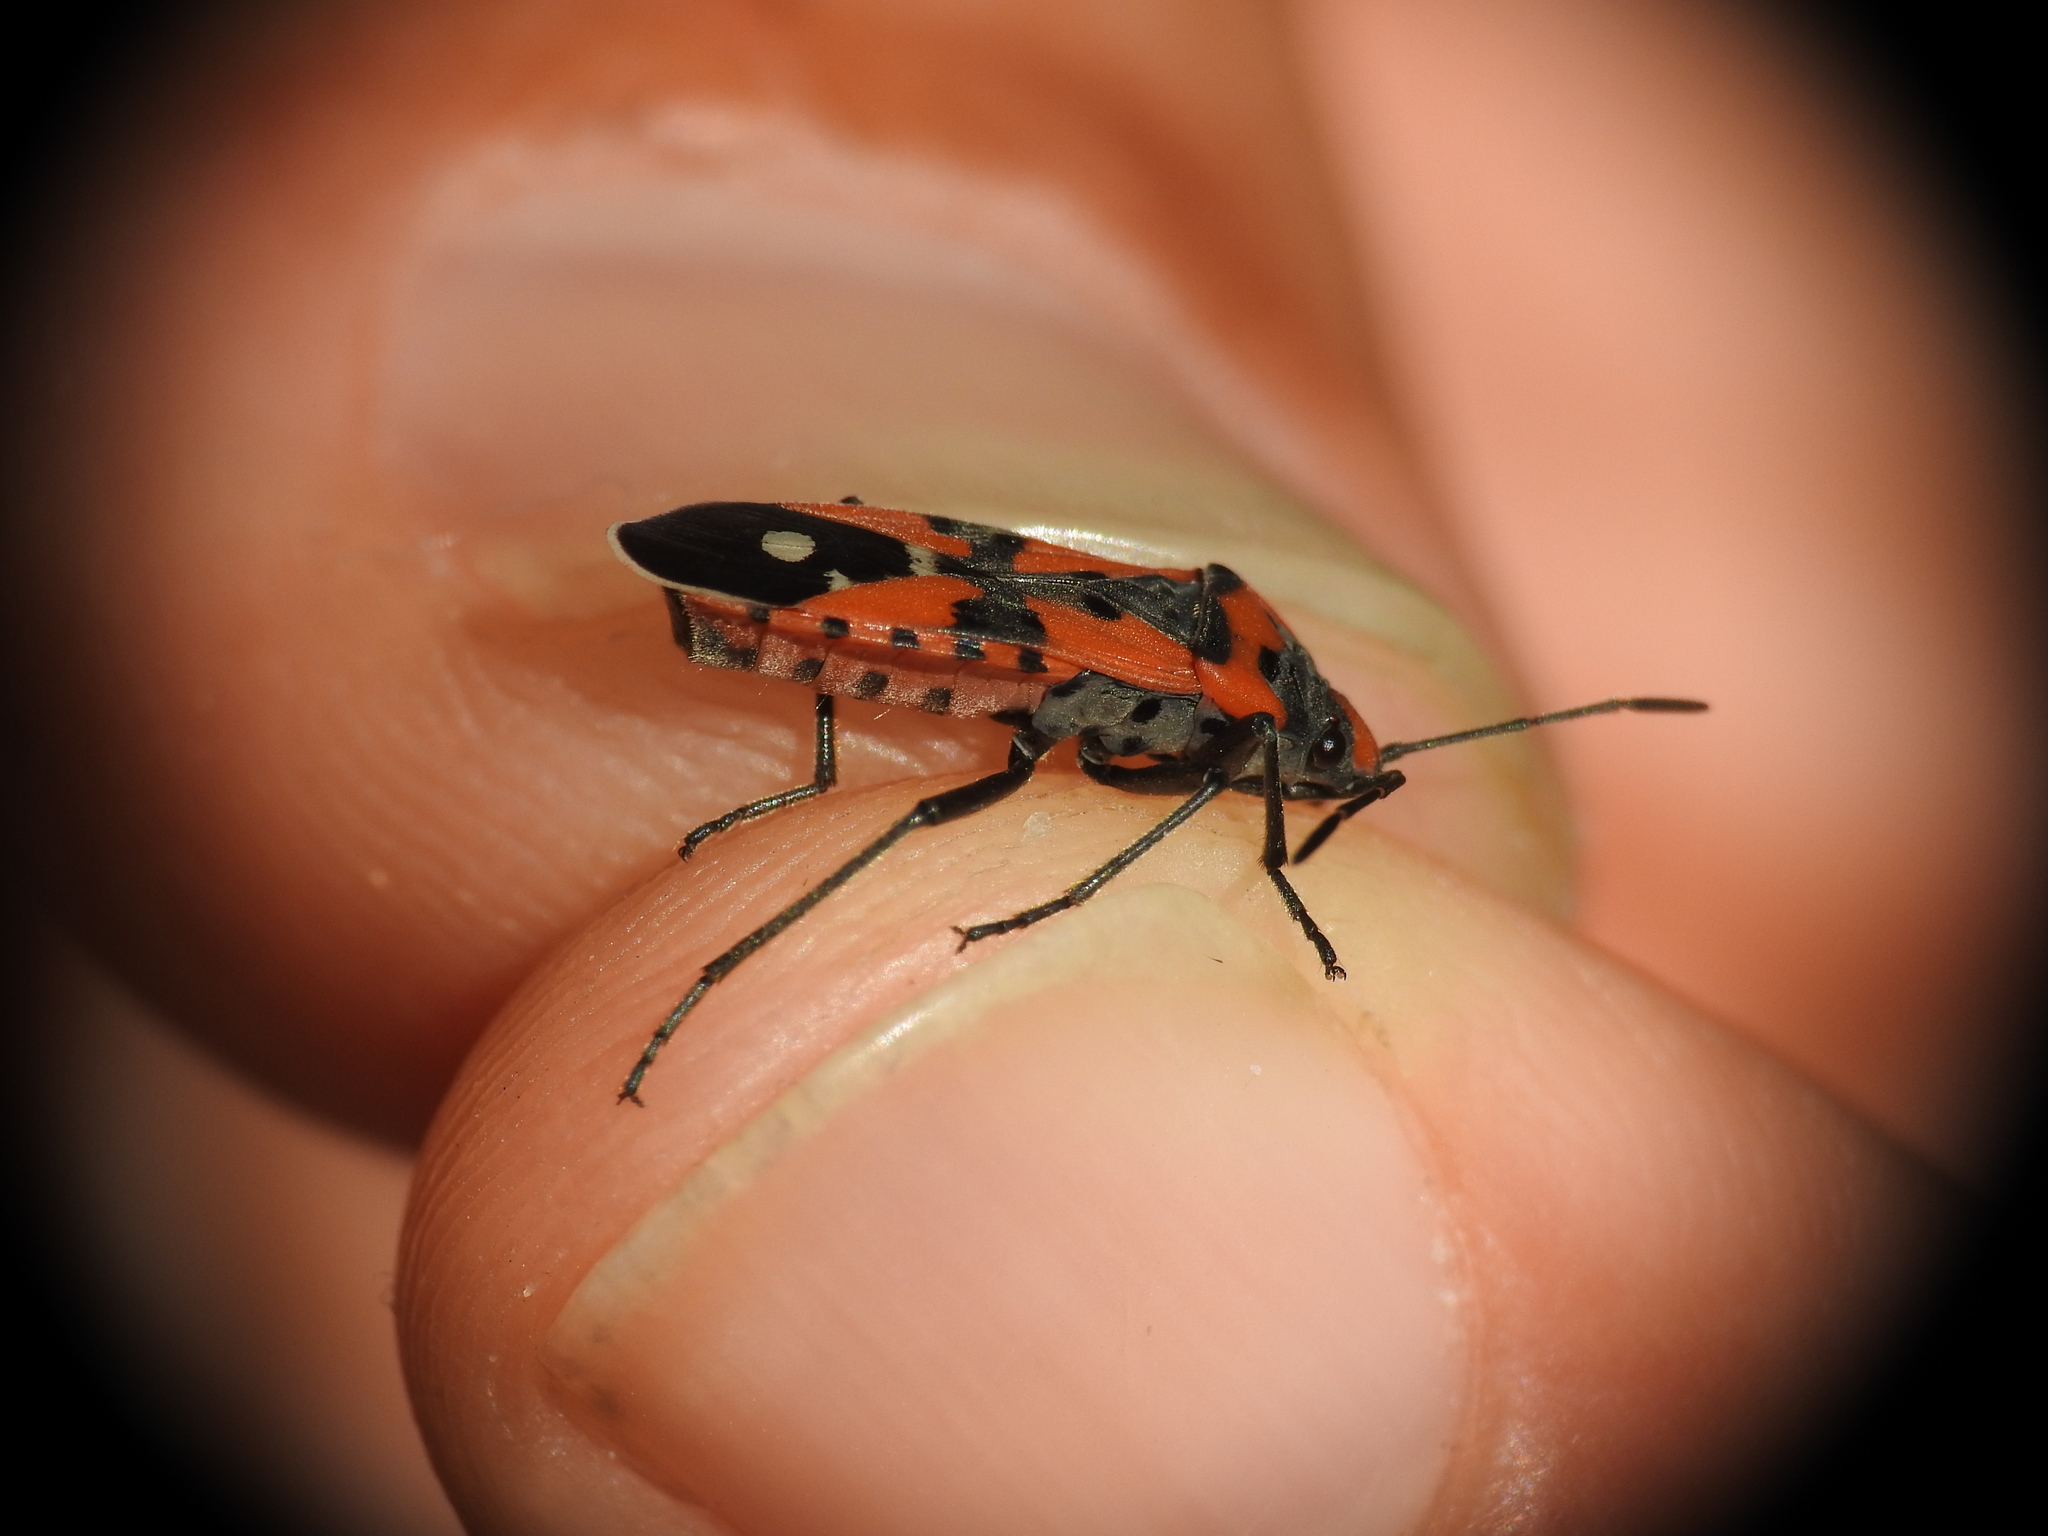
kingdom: Animalia
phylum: Arthropoda
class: Insecta
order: Hemiptera
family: Lygaeidae
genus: Lygaeus
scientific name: Lygaeus equestris
